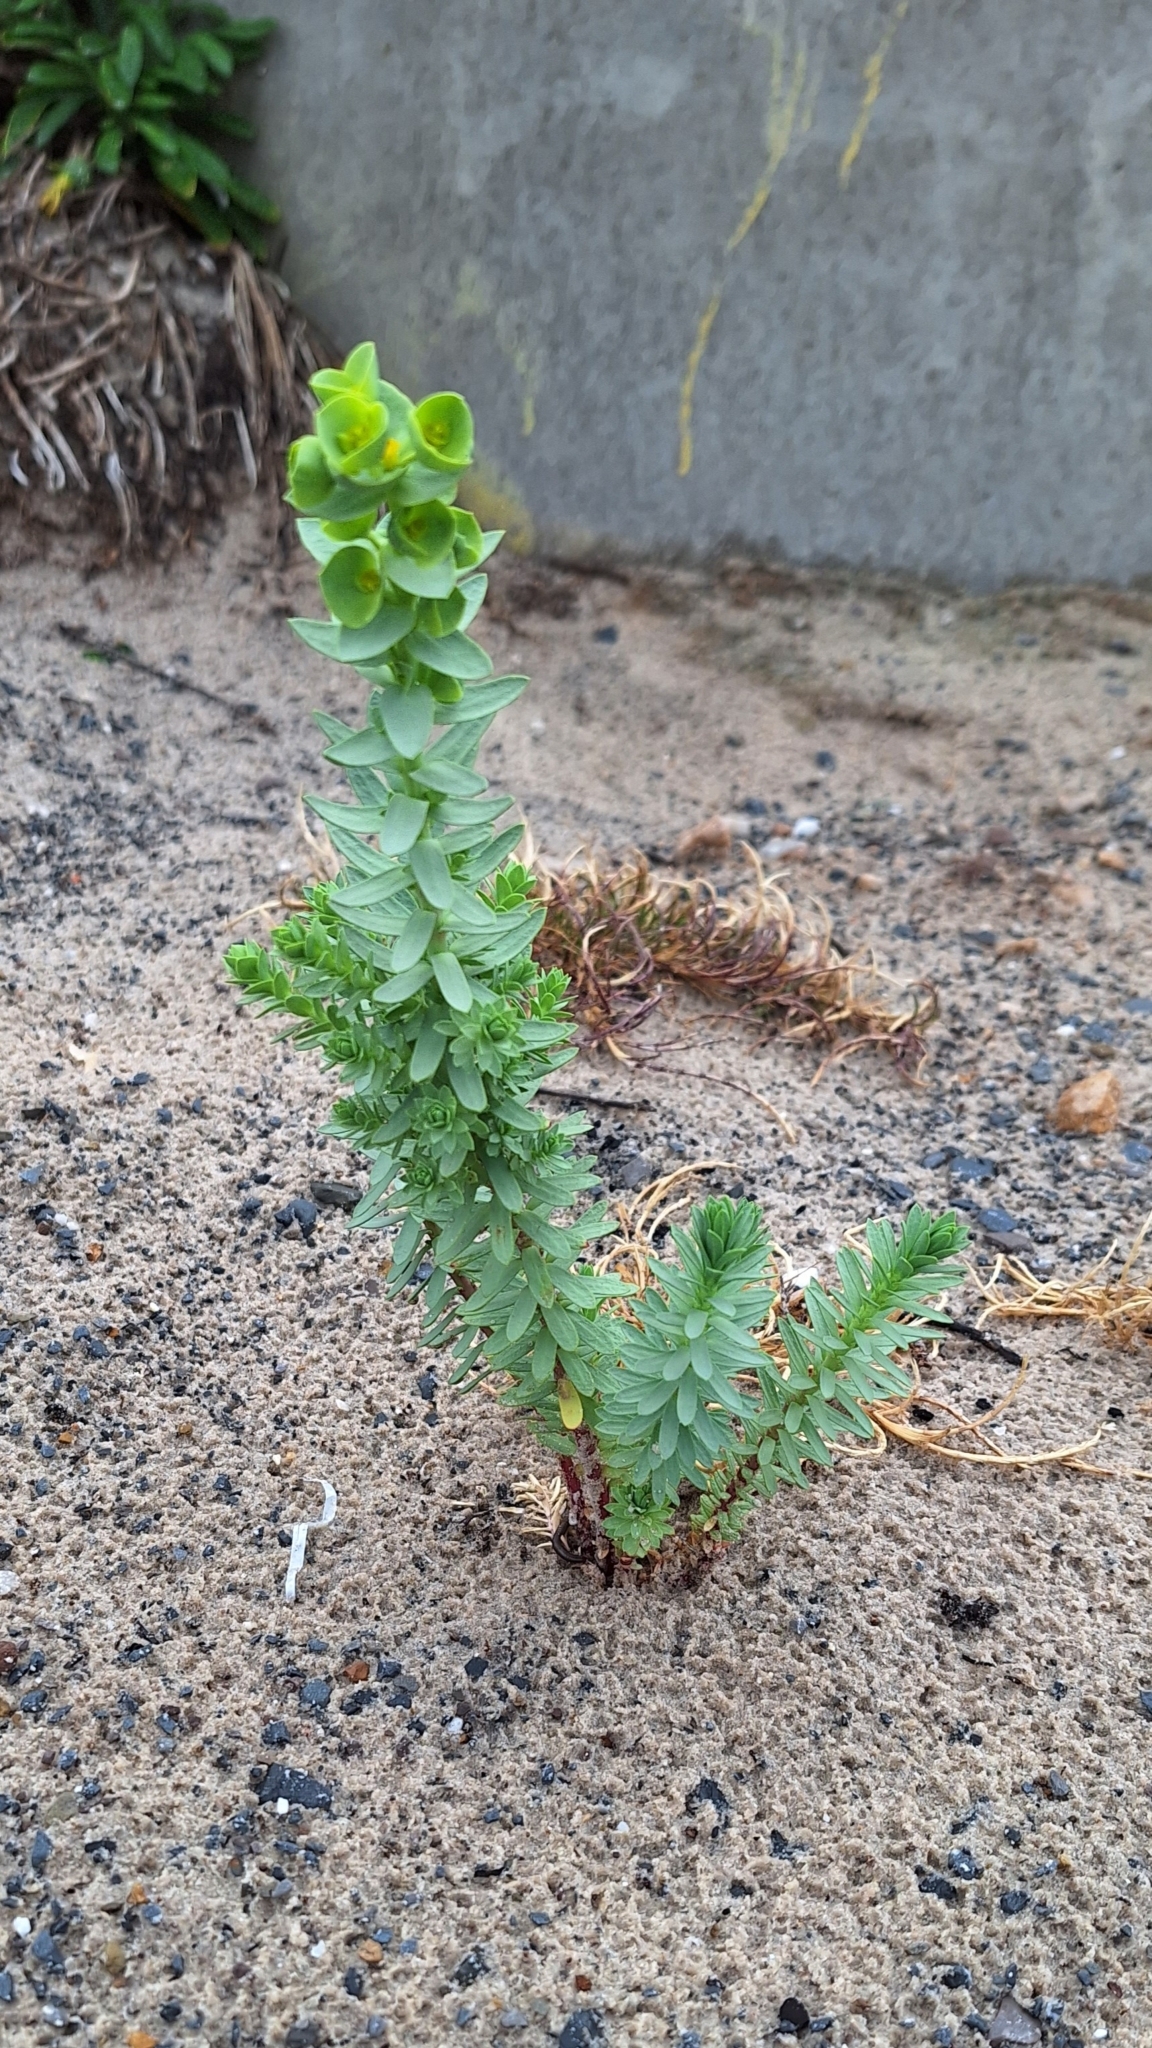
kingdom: Plantae
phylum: Tracheophyta
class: Magnoliopsida
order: Malpighiales
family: Euphorbiaceae
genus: Euphorbia
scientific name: Euphorbia paralias
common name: Sea spurge
